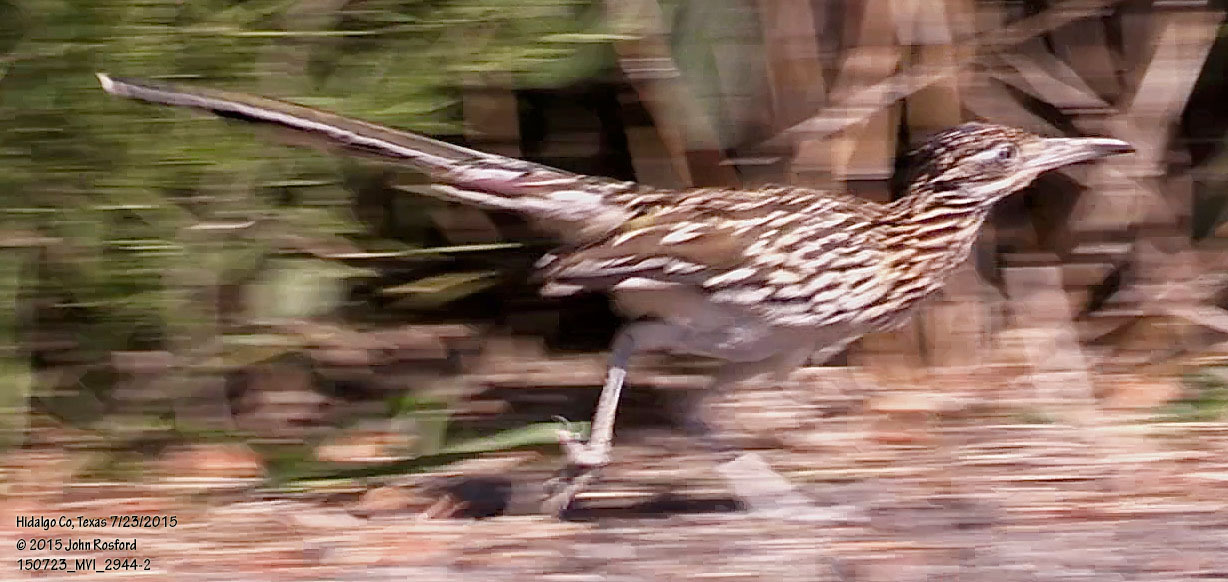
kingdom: Animalia
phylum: Chordata
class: Aves
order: Cuculiformes
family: Cuculidae
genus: Geococcyx
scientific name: Geococcyx californianus
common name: Greater roadrunner
